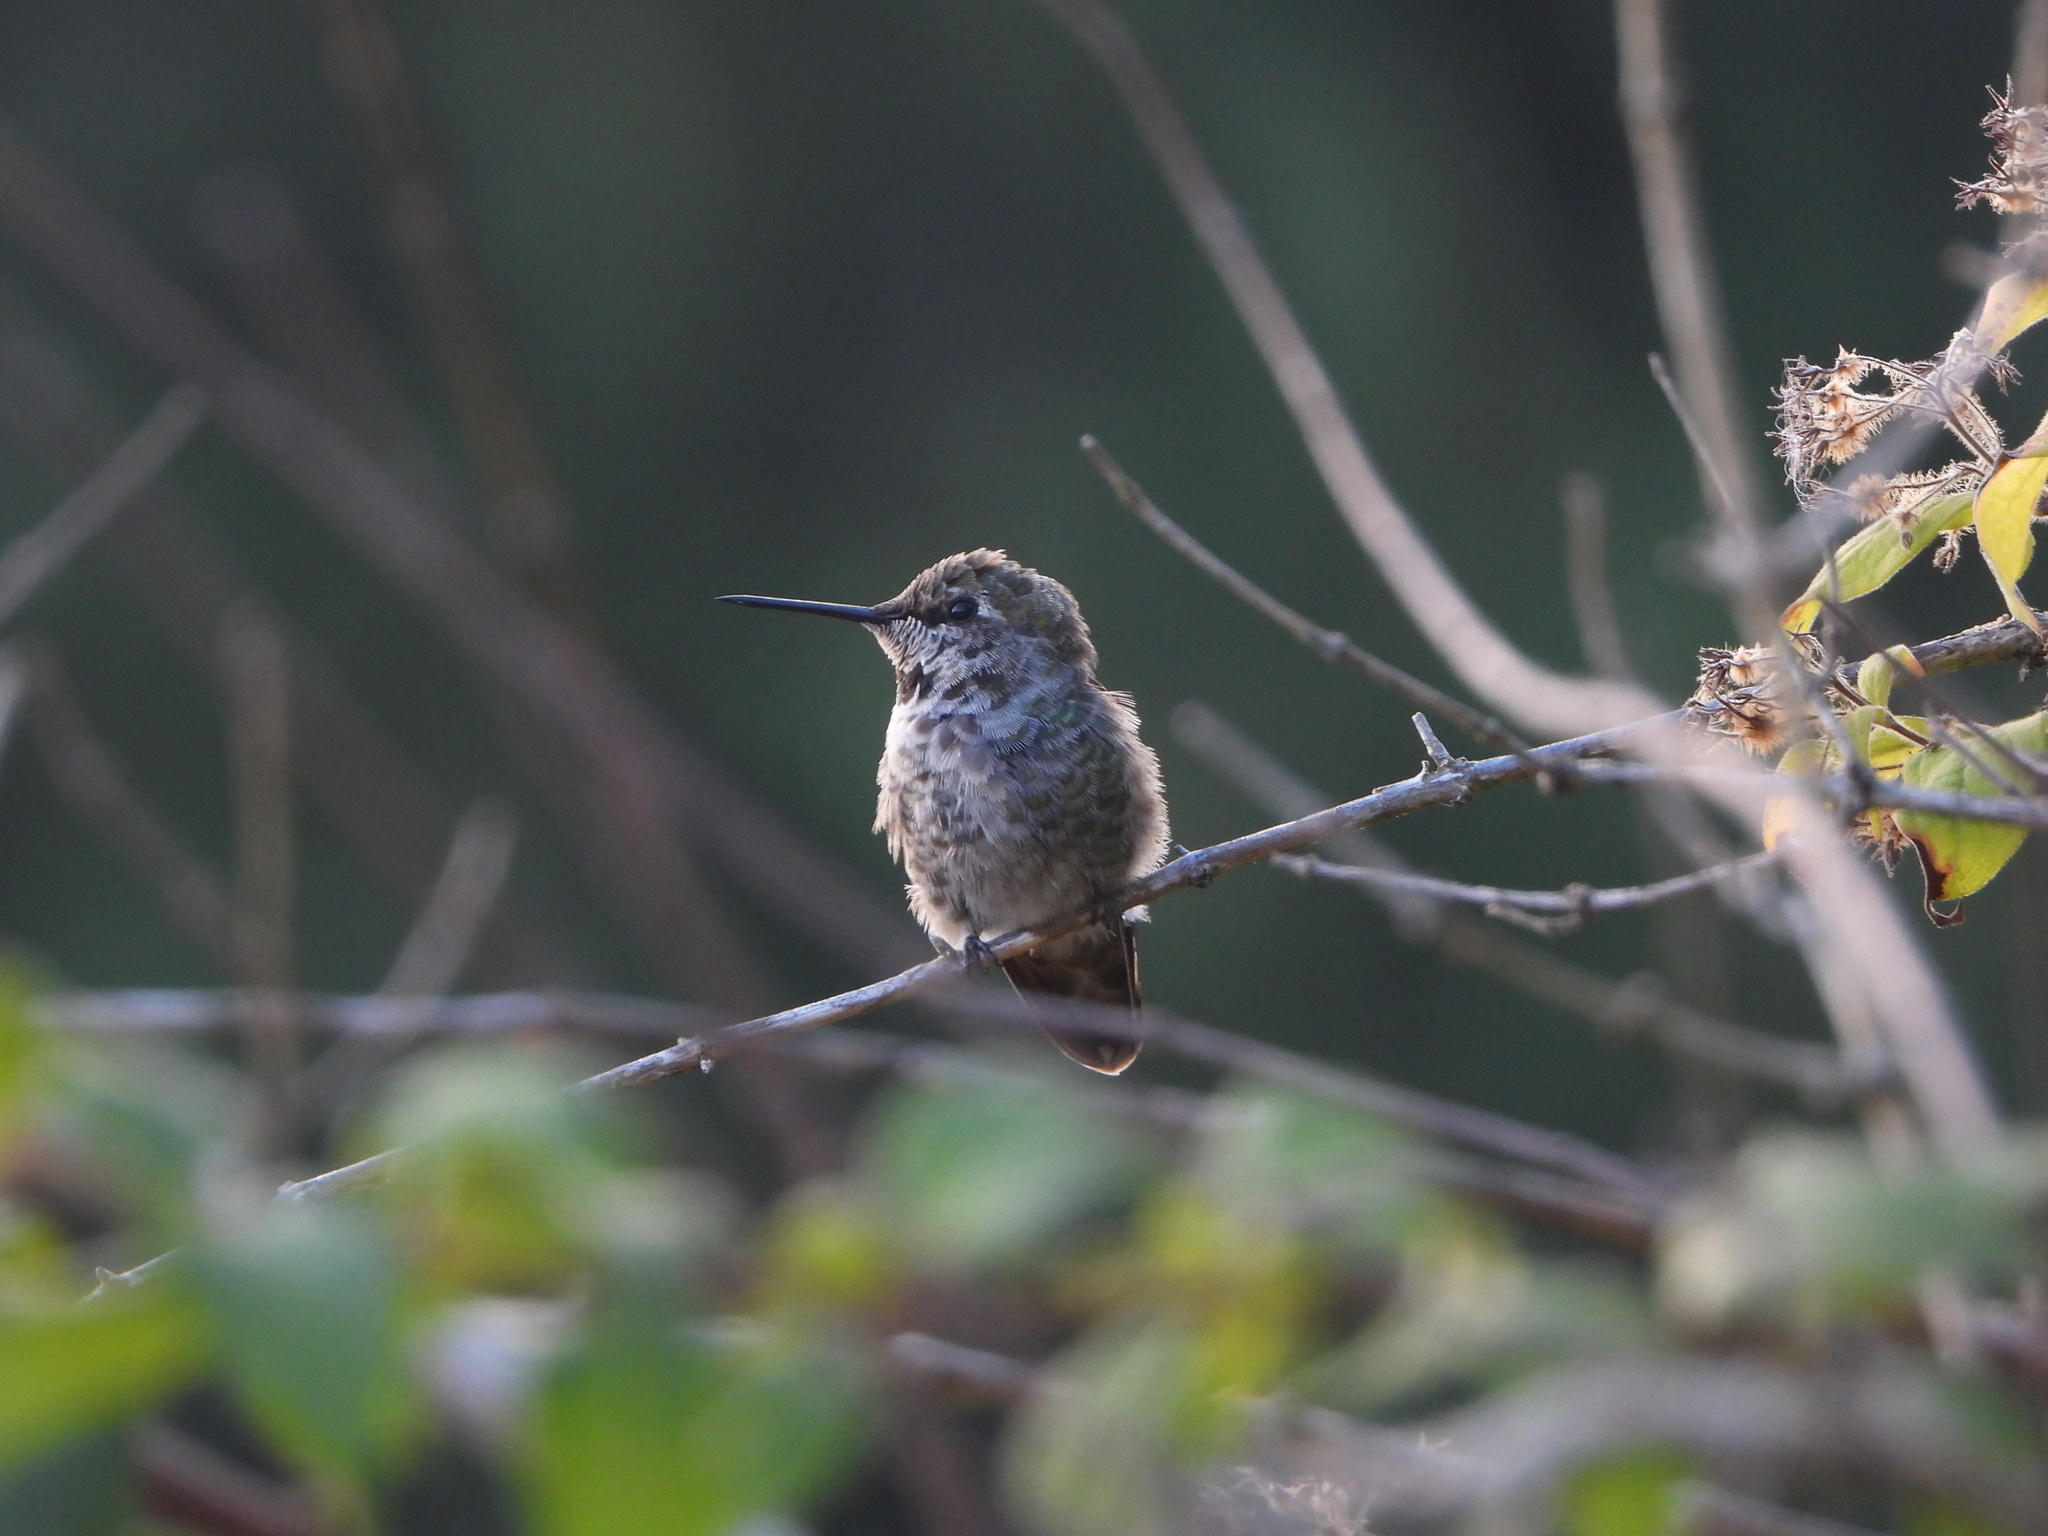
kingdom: Animalia
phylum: Chordata
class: Aves
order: Apodiformes
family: Trochilidae
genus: Calypte
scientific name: Calypte anna
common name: Anna's hummingbird
